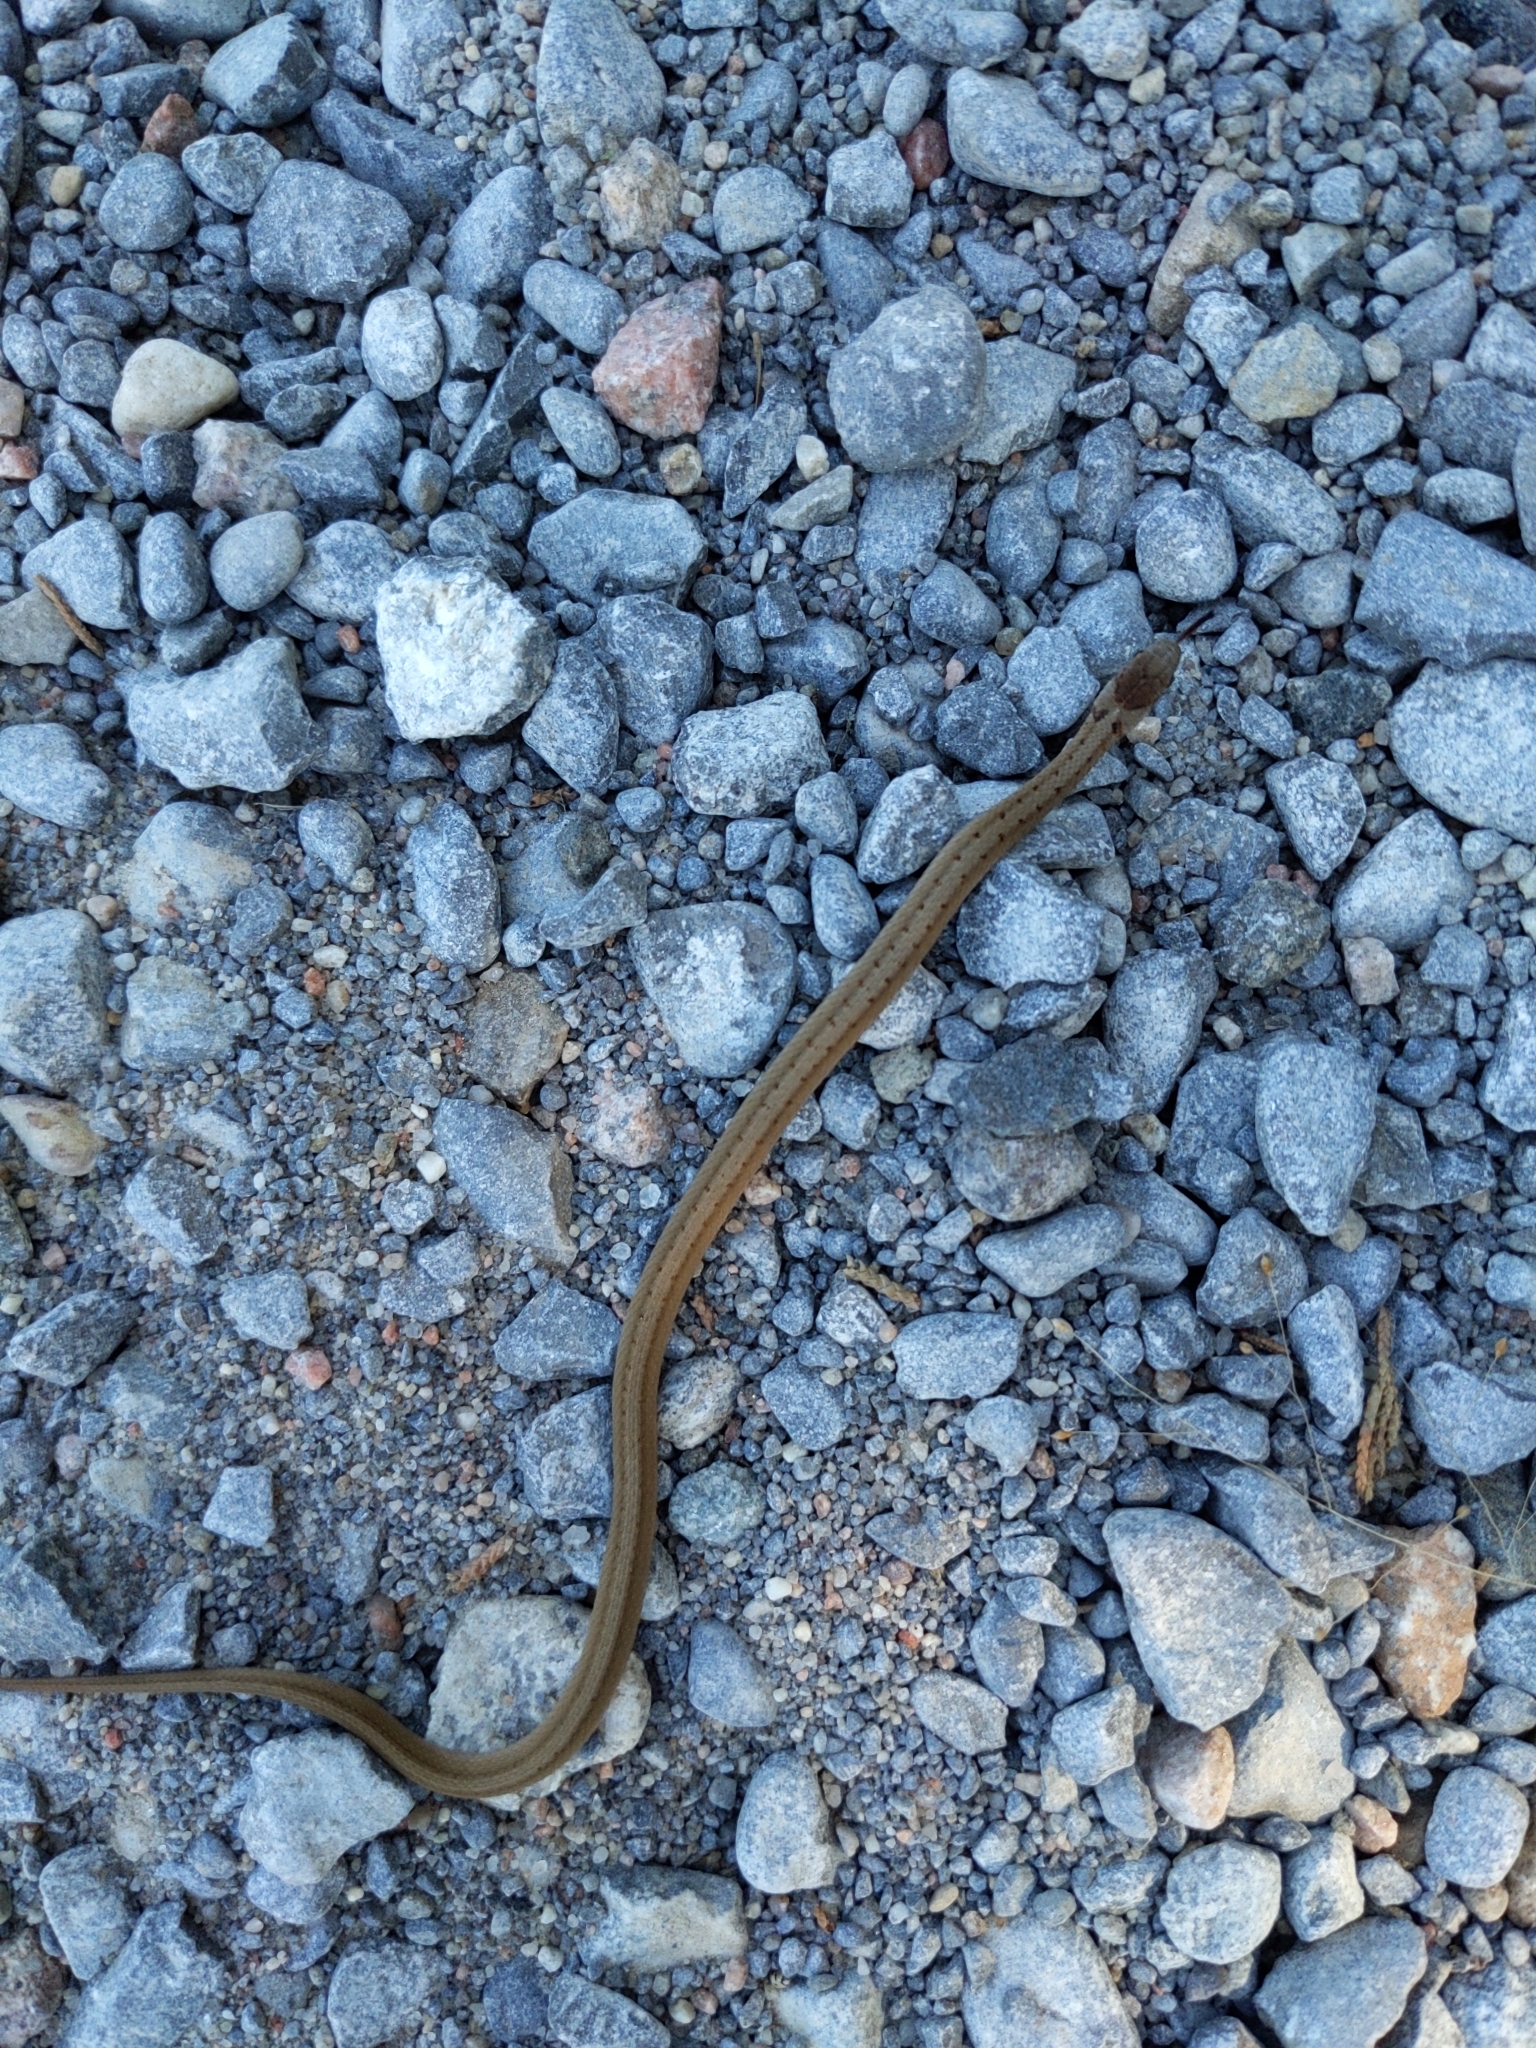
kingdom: Animalia
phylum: Chordata
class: Squamata
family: Colubridae
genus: Storeria
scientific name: Storeria dekayi
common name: (dekay’s) brown snake
